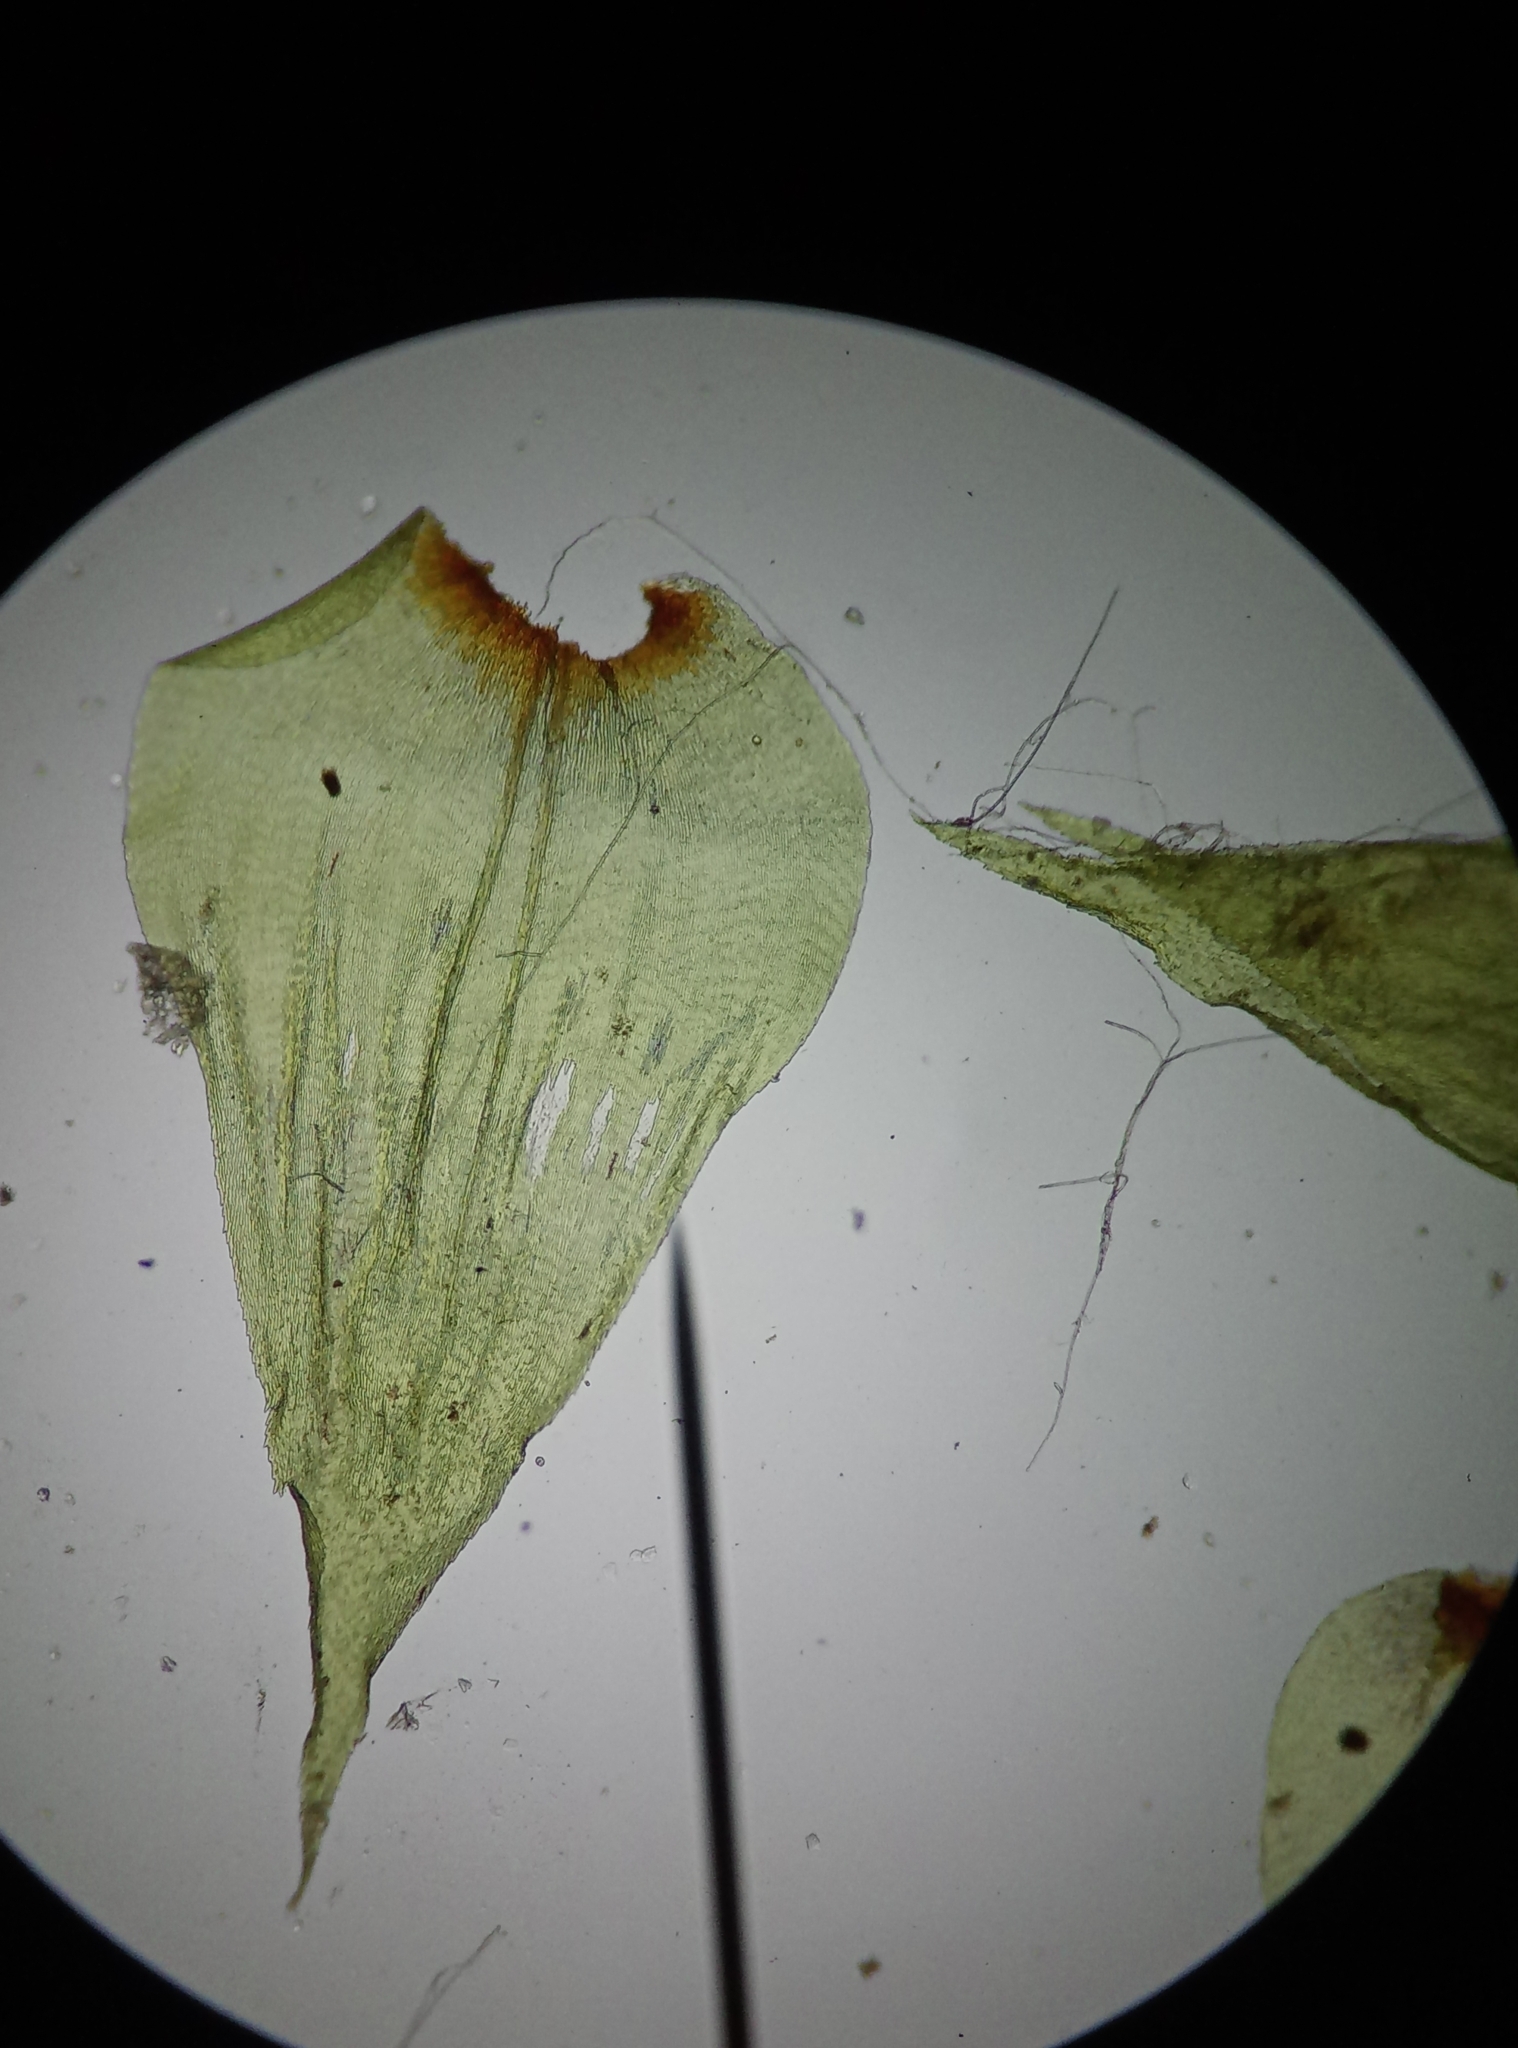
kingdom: Plantae
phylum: Bryophyta
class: Bryopsida
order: Hypnales
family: Hylocomiaceae
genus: Hylocomiadelphus
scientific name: Hylocomiadelphus triquetrus
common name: Rough goose neck moss
